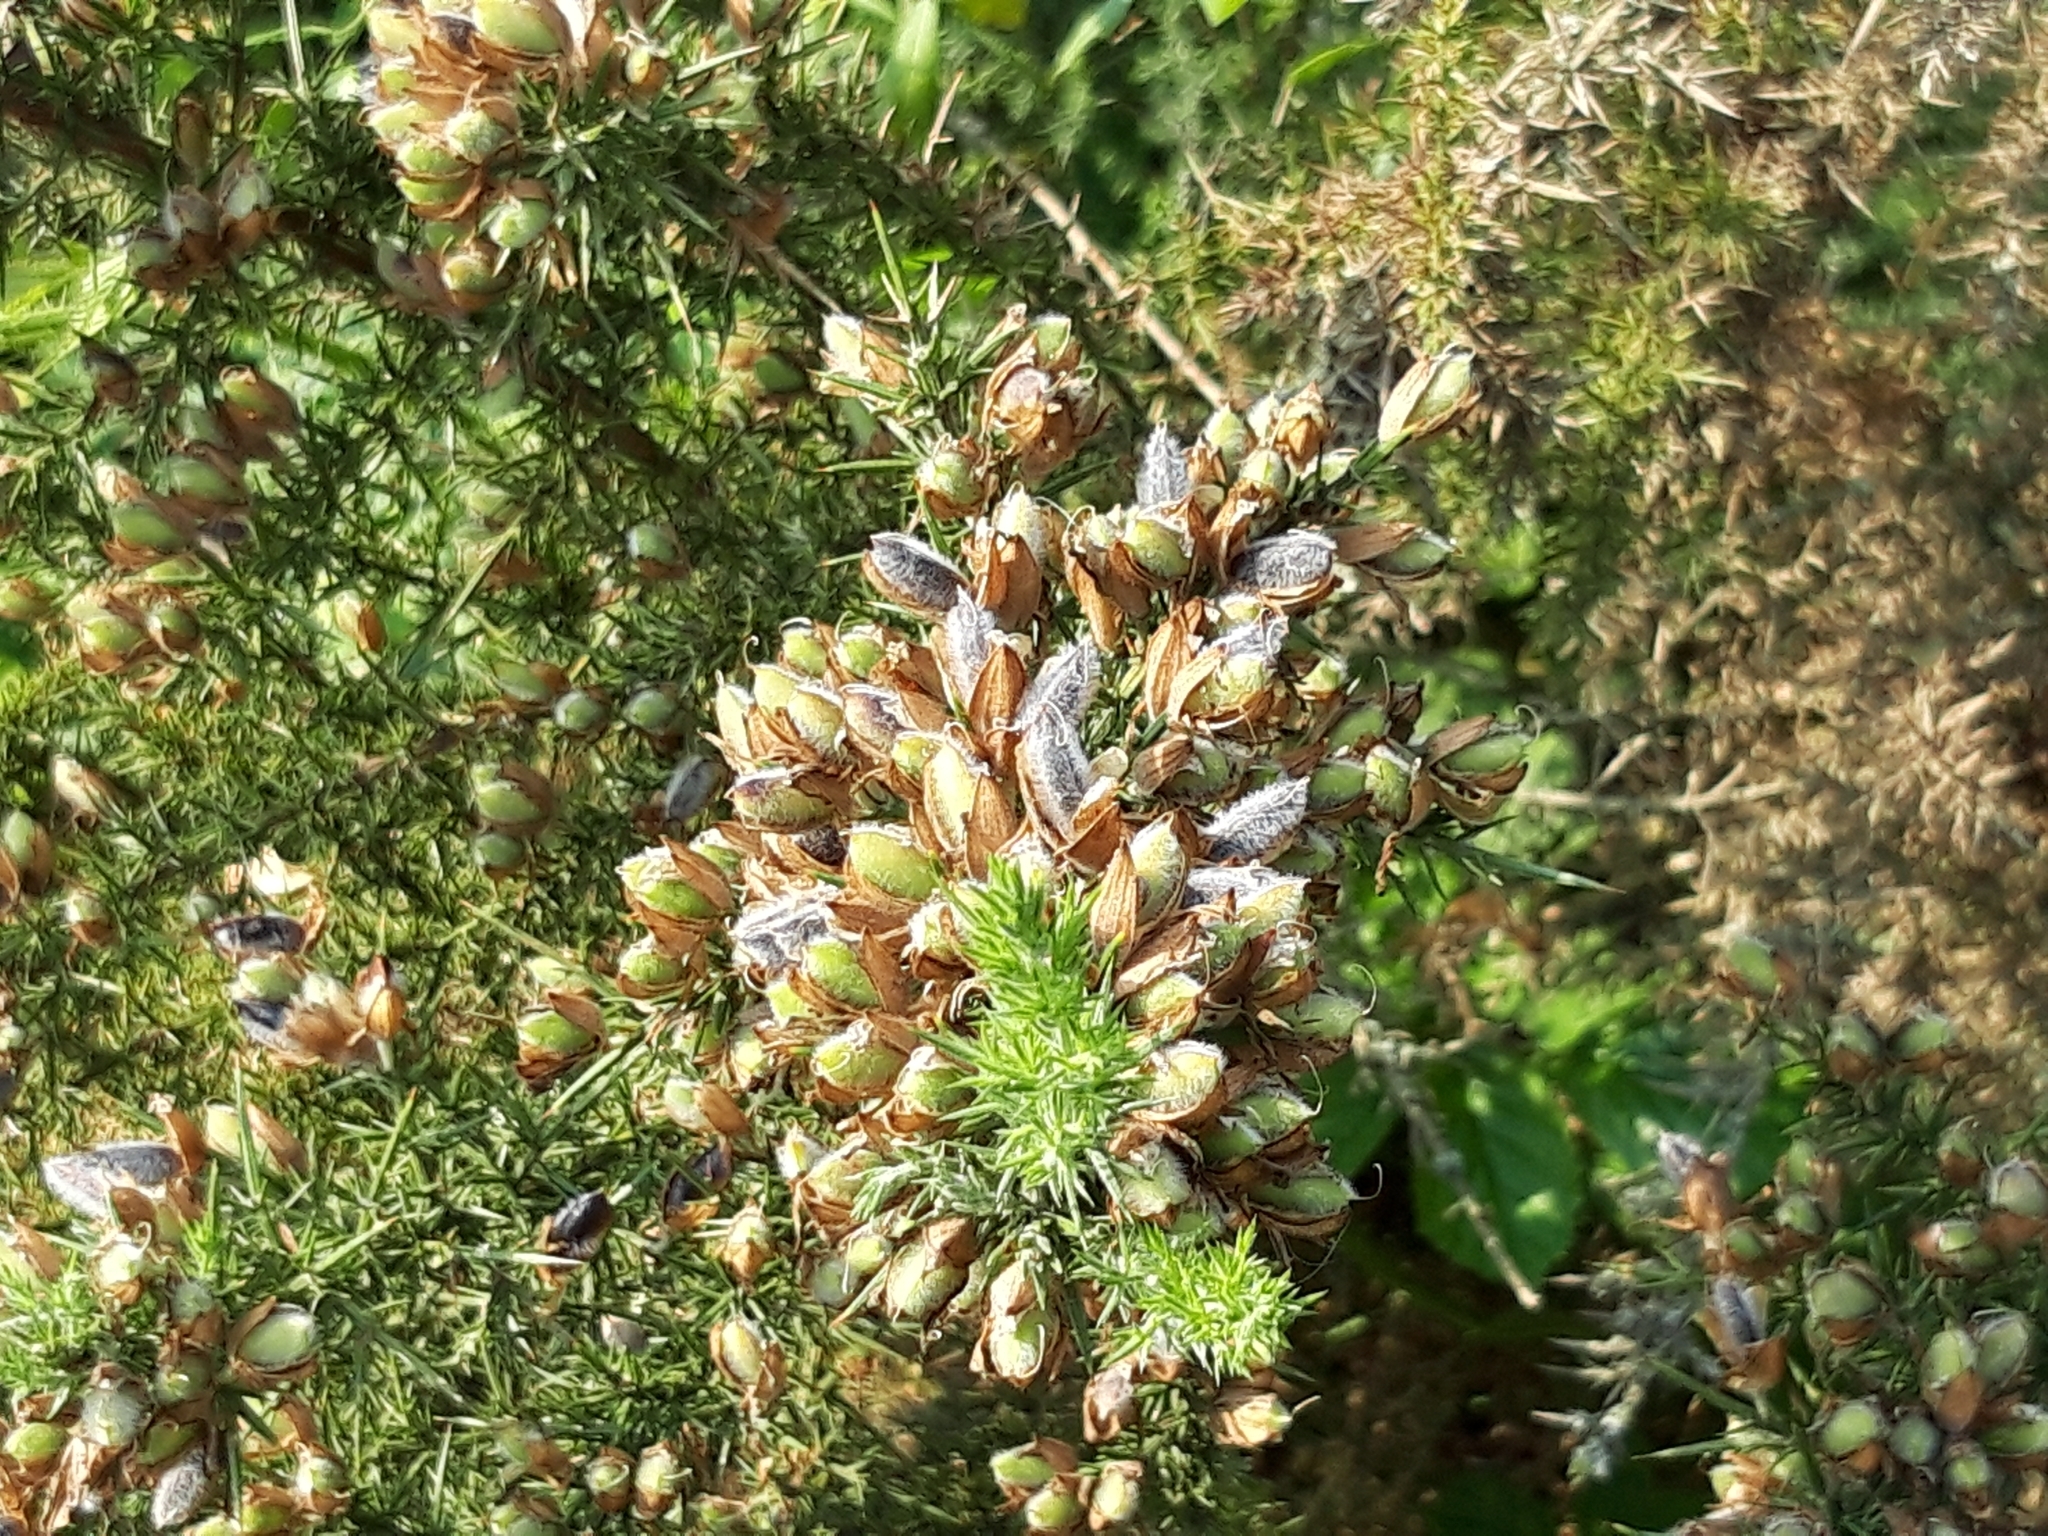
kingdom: Plantae
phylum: Tracheophyta
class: Magnoliopsida
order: Fabales
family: Fabaceae
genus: Ulex
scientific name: Ulex europaeus
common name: Common gorse
